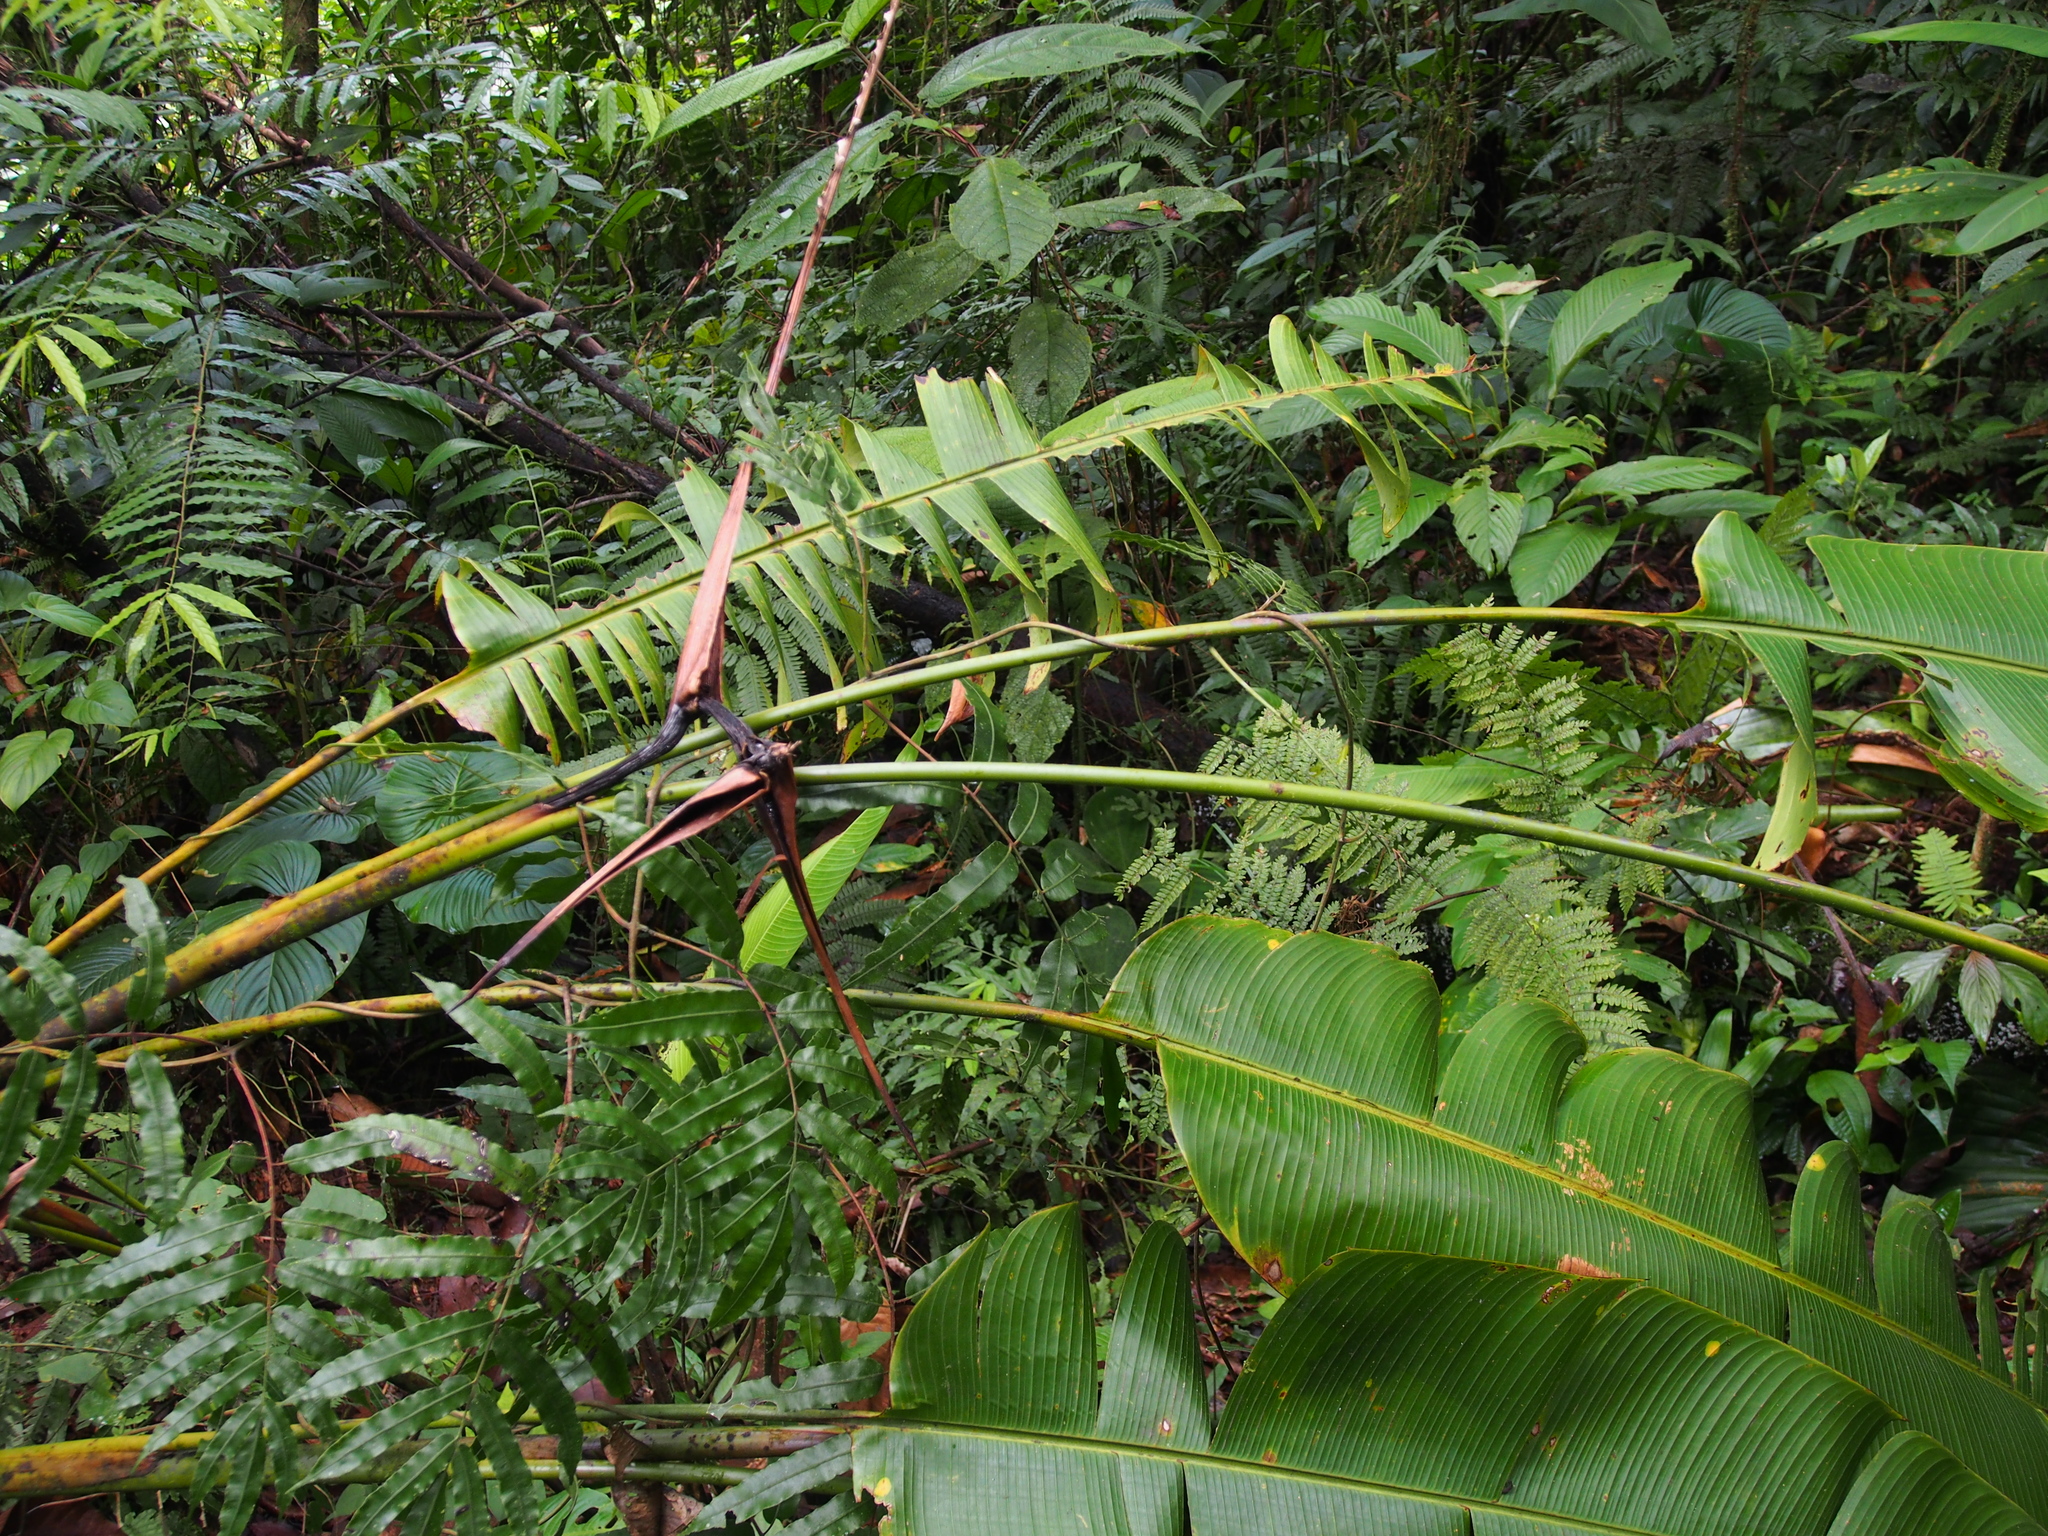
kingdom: Plantae
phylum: Tracheophyta
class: Liliopsida
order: Zingiberales
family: Heliconiaceae
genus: Heliconia
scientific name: Heliconia sarapiquensis
